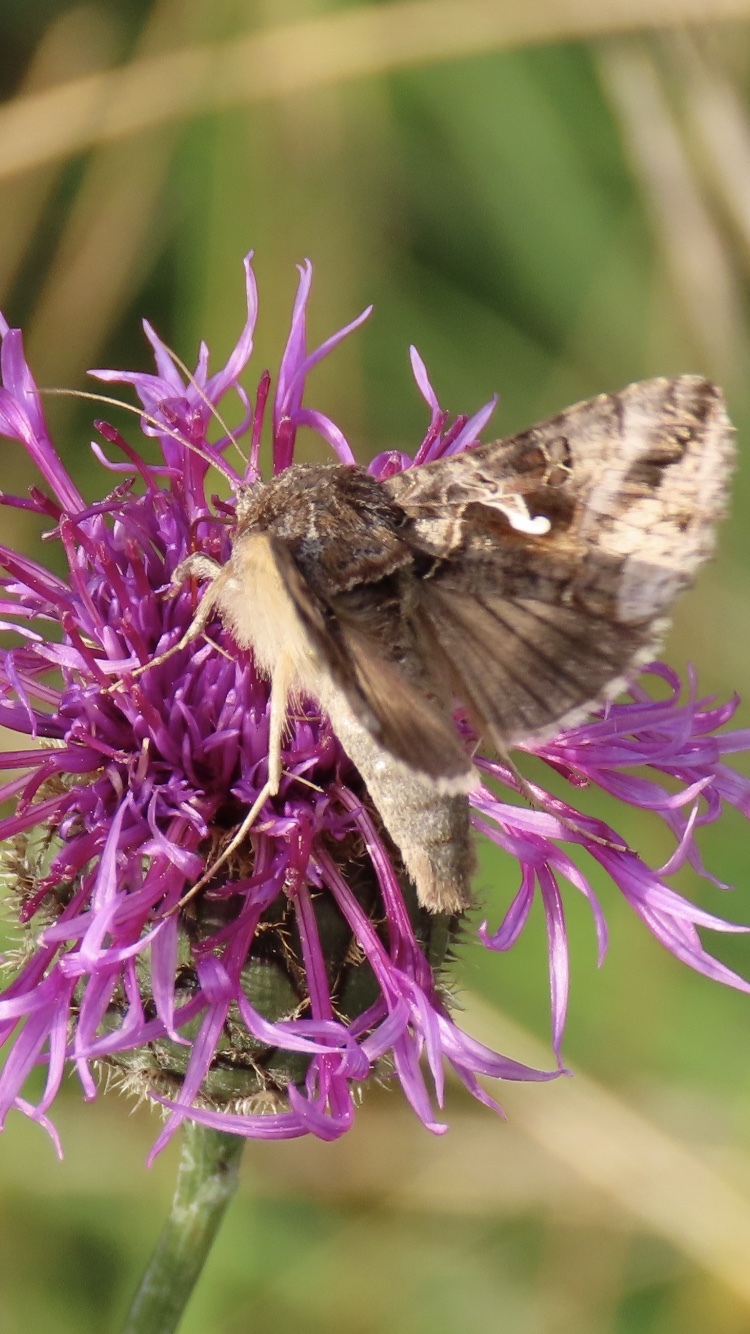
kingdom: Animalia
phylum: Arthropoda
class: Insecta
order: Lepidoptera
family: Noctuidae
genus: Autographa
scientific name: Autographa gamma
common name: Silver y
